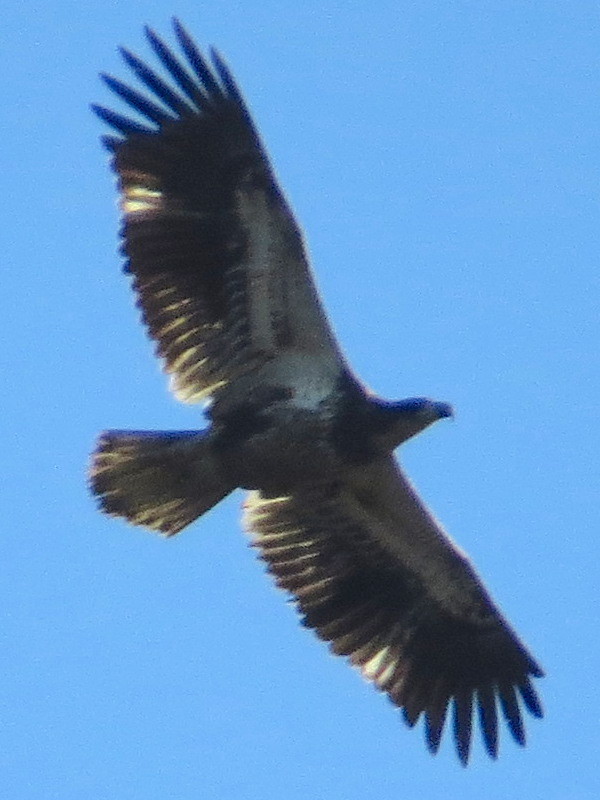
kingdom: Animalia
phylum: Chordata
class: Aves
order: Accipitriformes
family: Accipitridae
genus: Haliaeetus
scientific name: Haliaeetus leucocephalus
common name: Bald eagle
